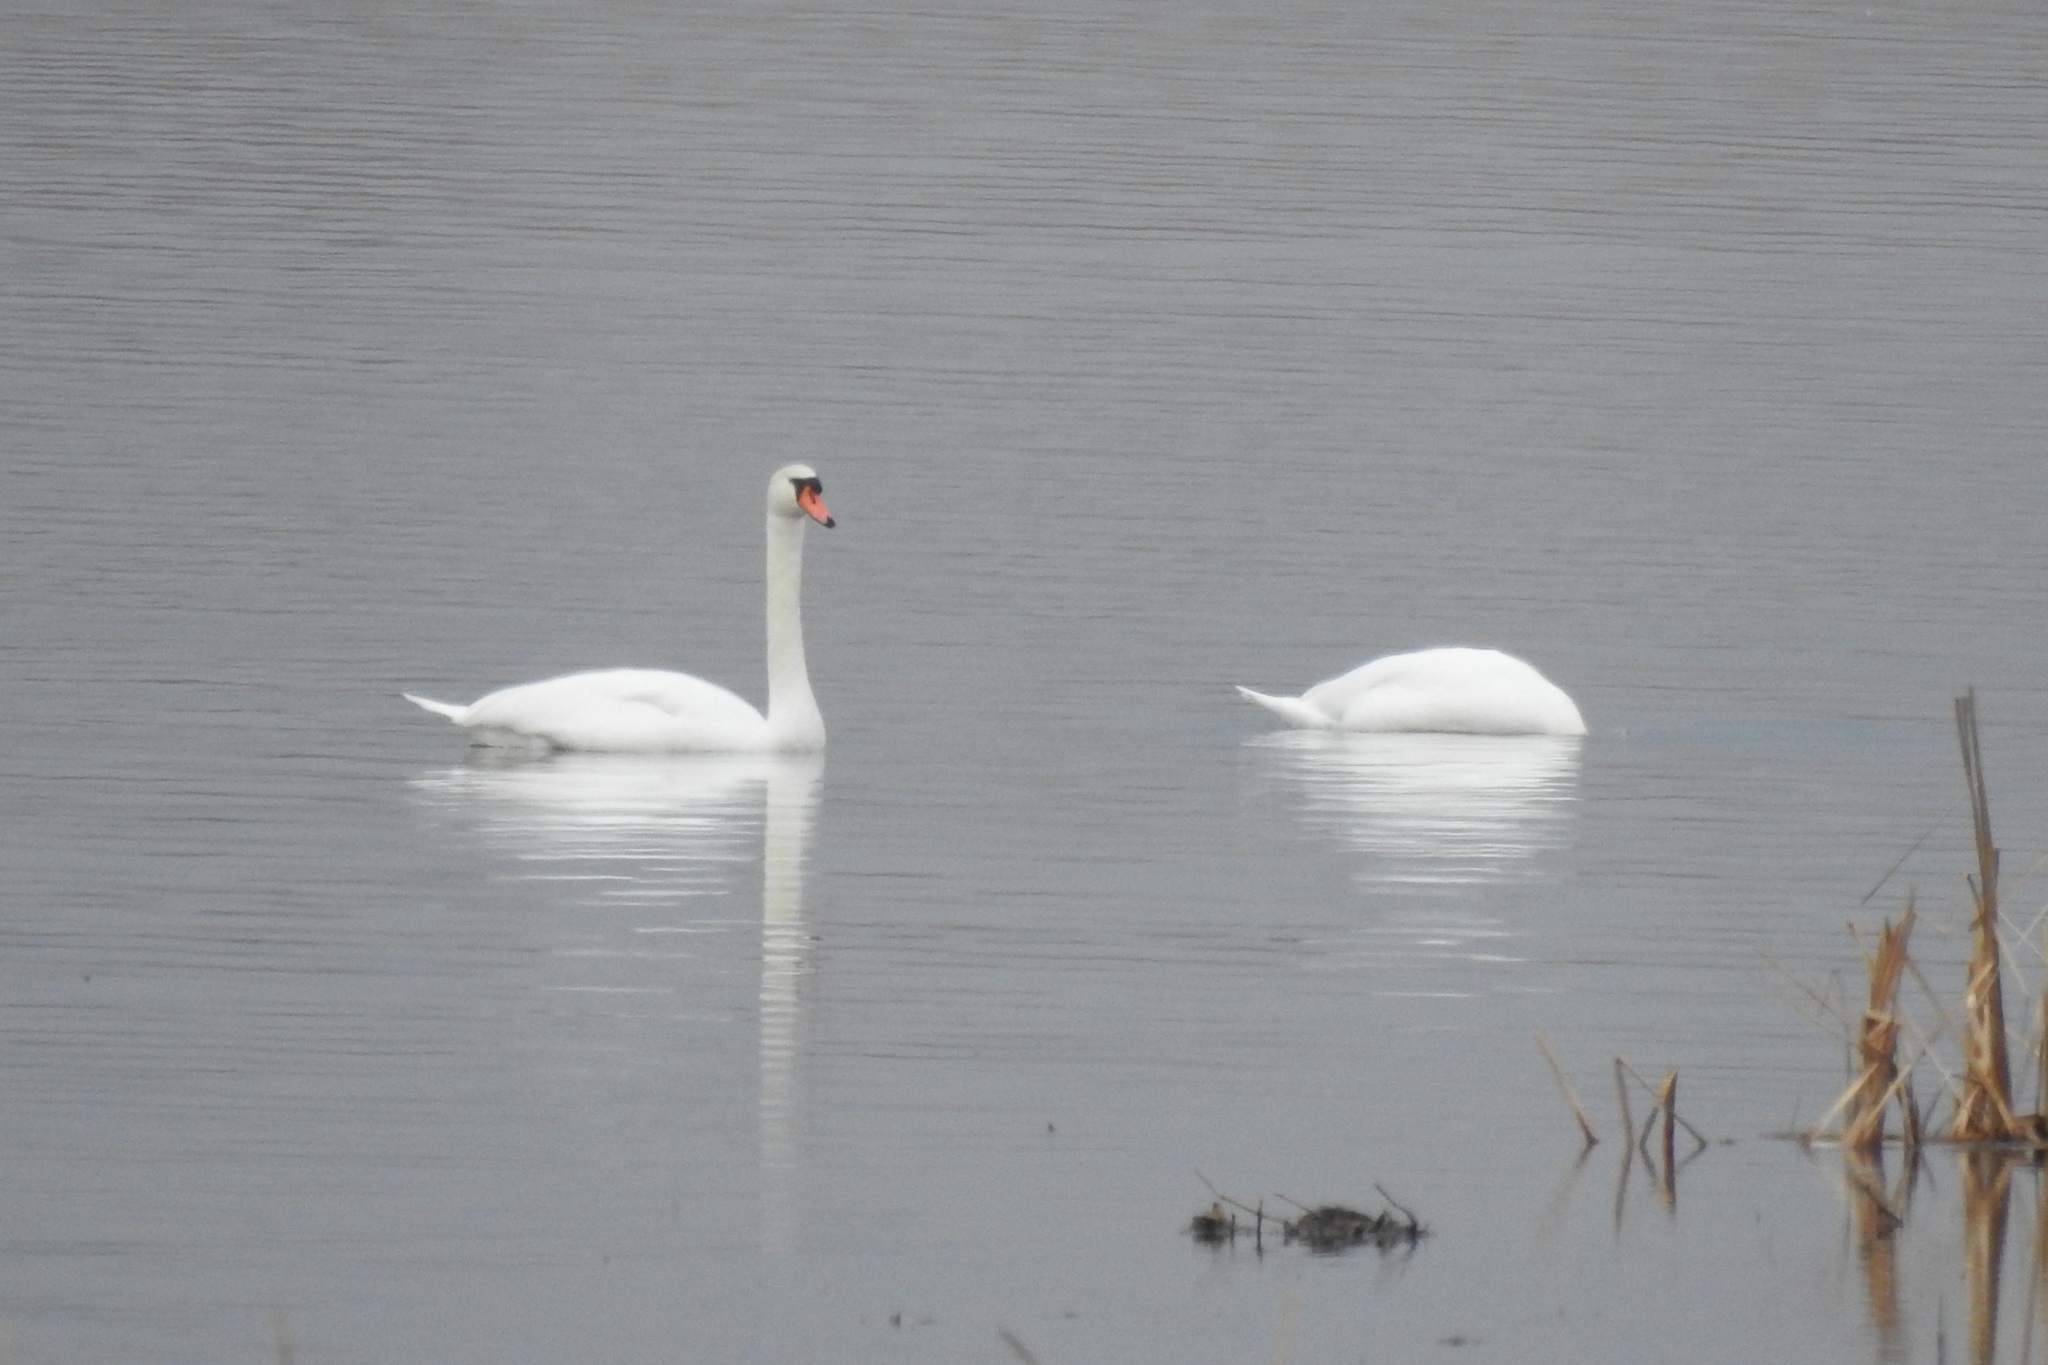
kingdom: Animalia
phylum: Chordata
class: Aves
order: Anseriformes
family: Anatidae
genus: Cygnus
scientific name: Cygnus olor
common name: Mute swan
